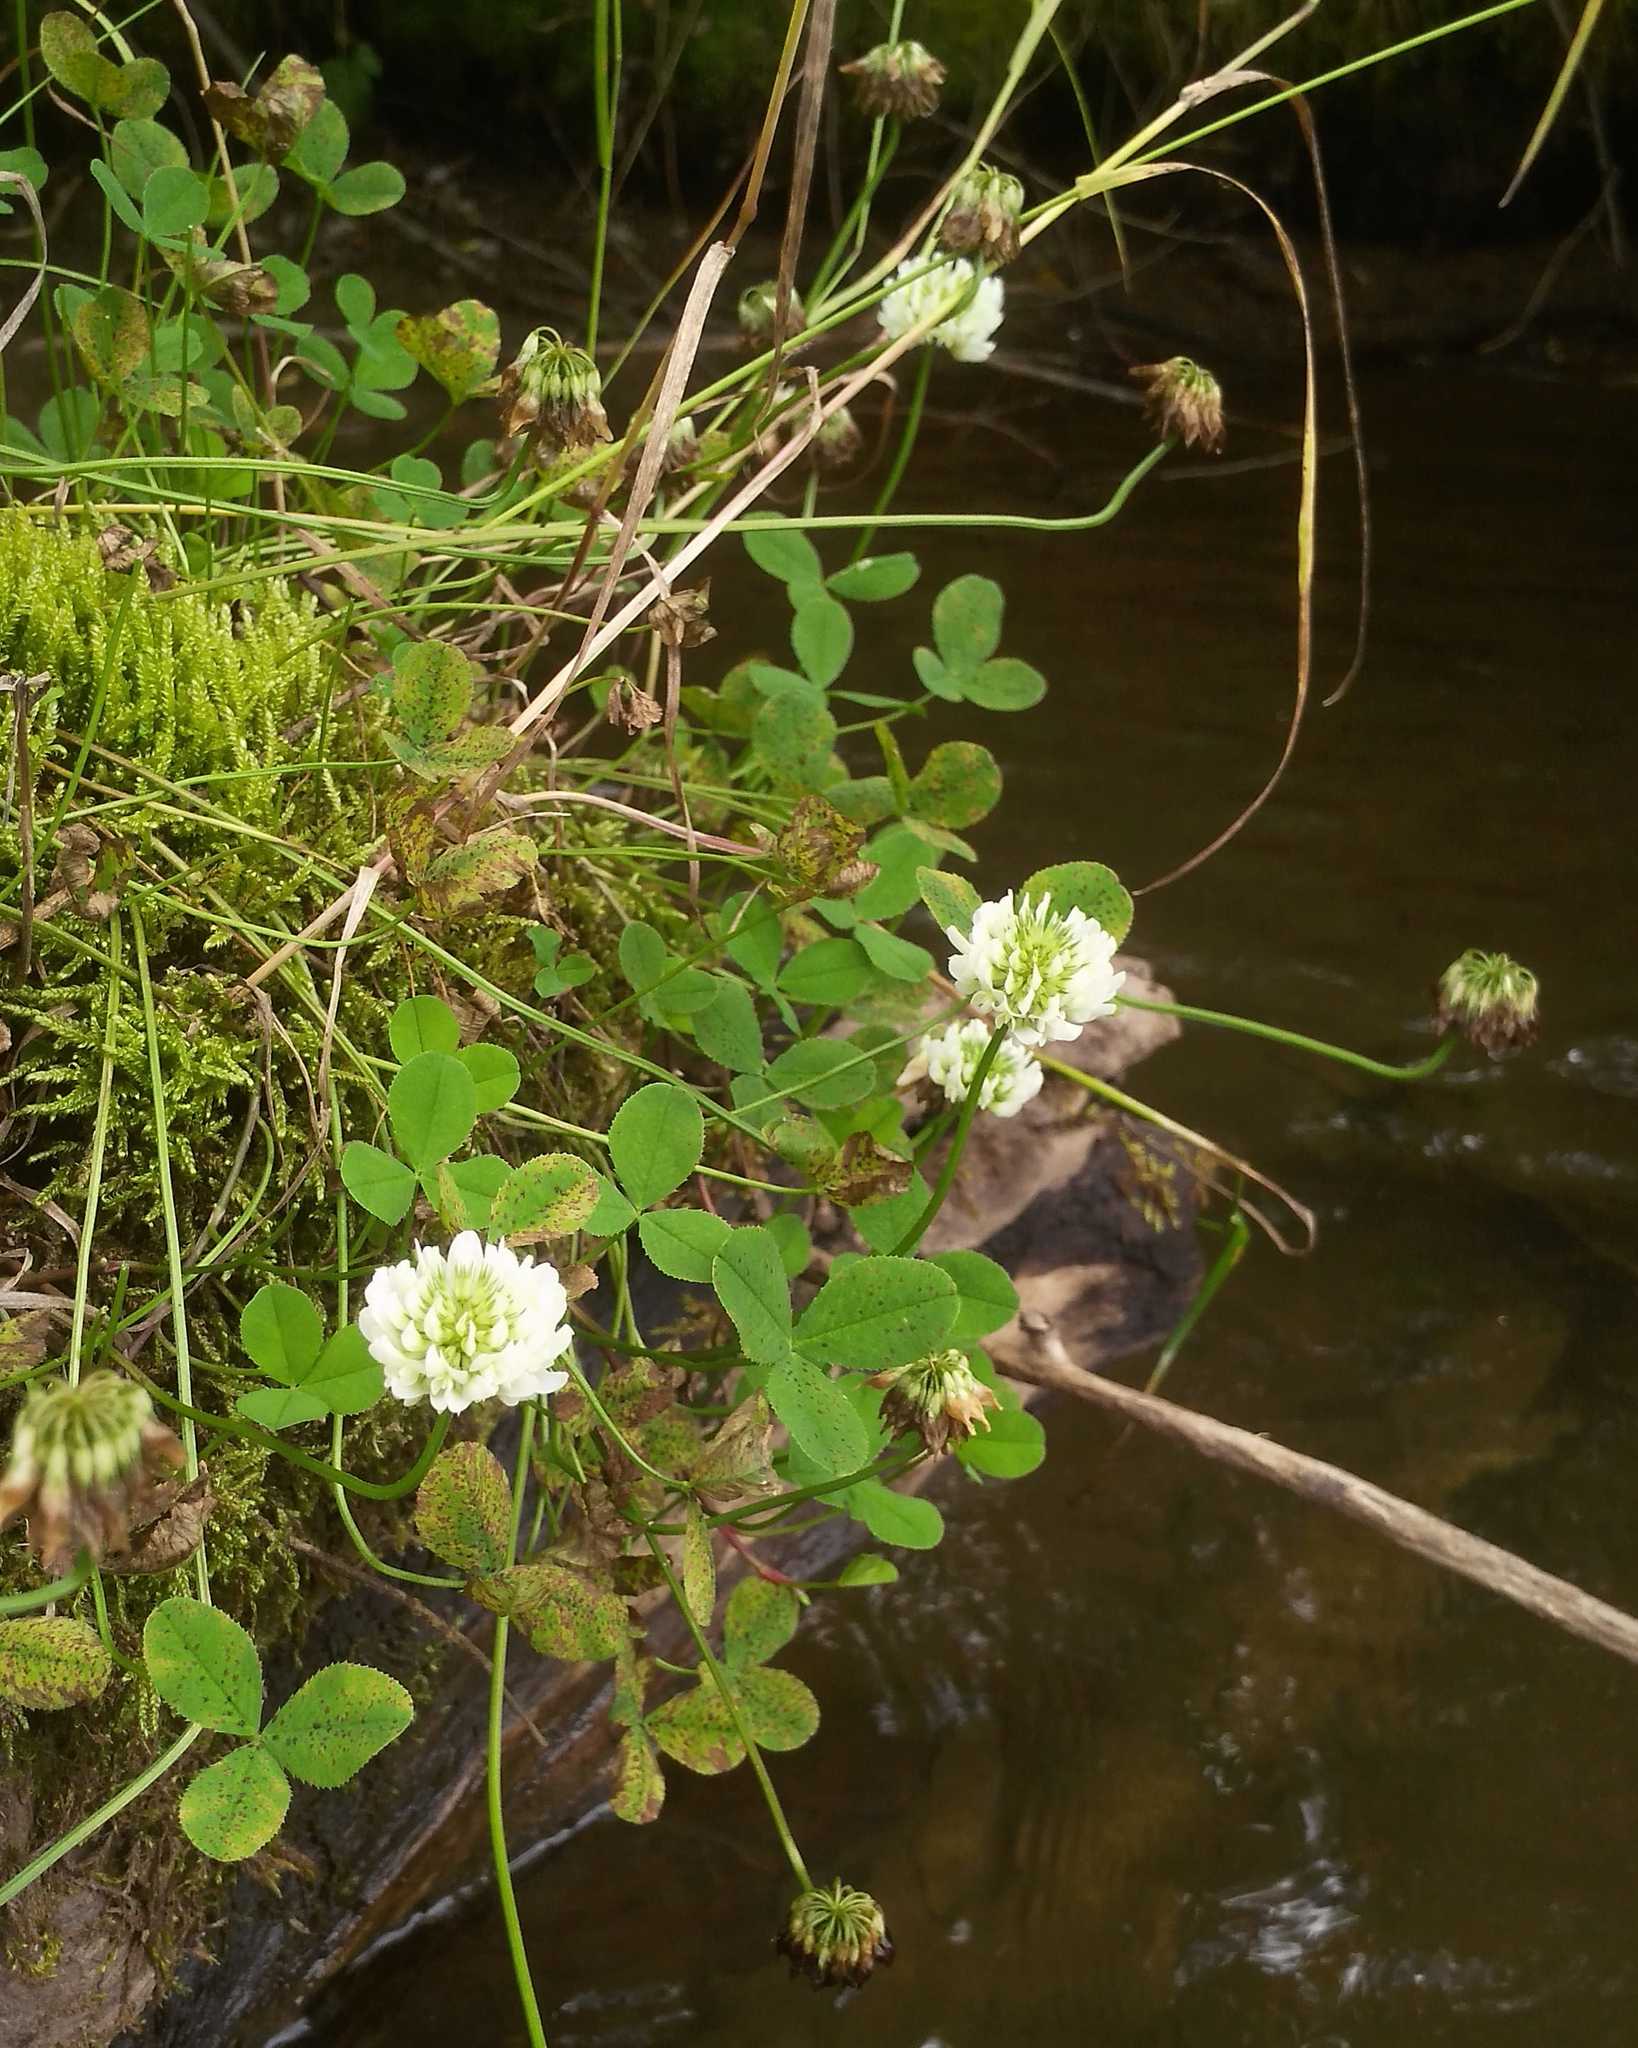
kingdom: Plantae
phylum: Tracheophyta
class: Magnoliopsida
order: Fabales
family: Fabaceae
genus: Trifolium
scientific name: Trifolium repens
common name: White clover
